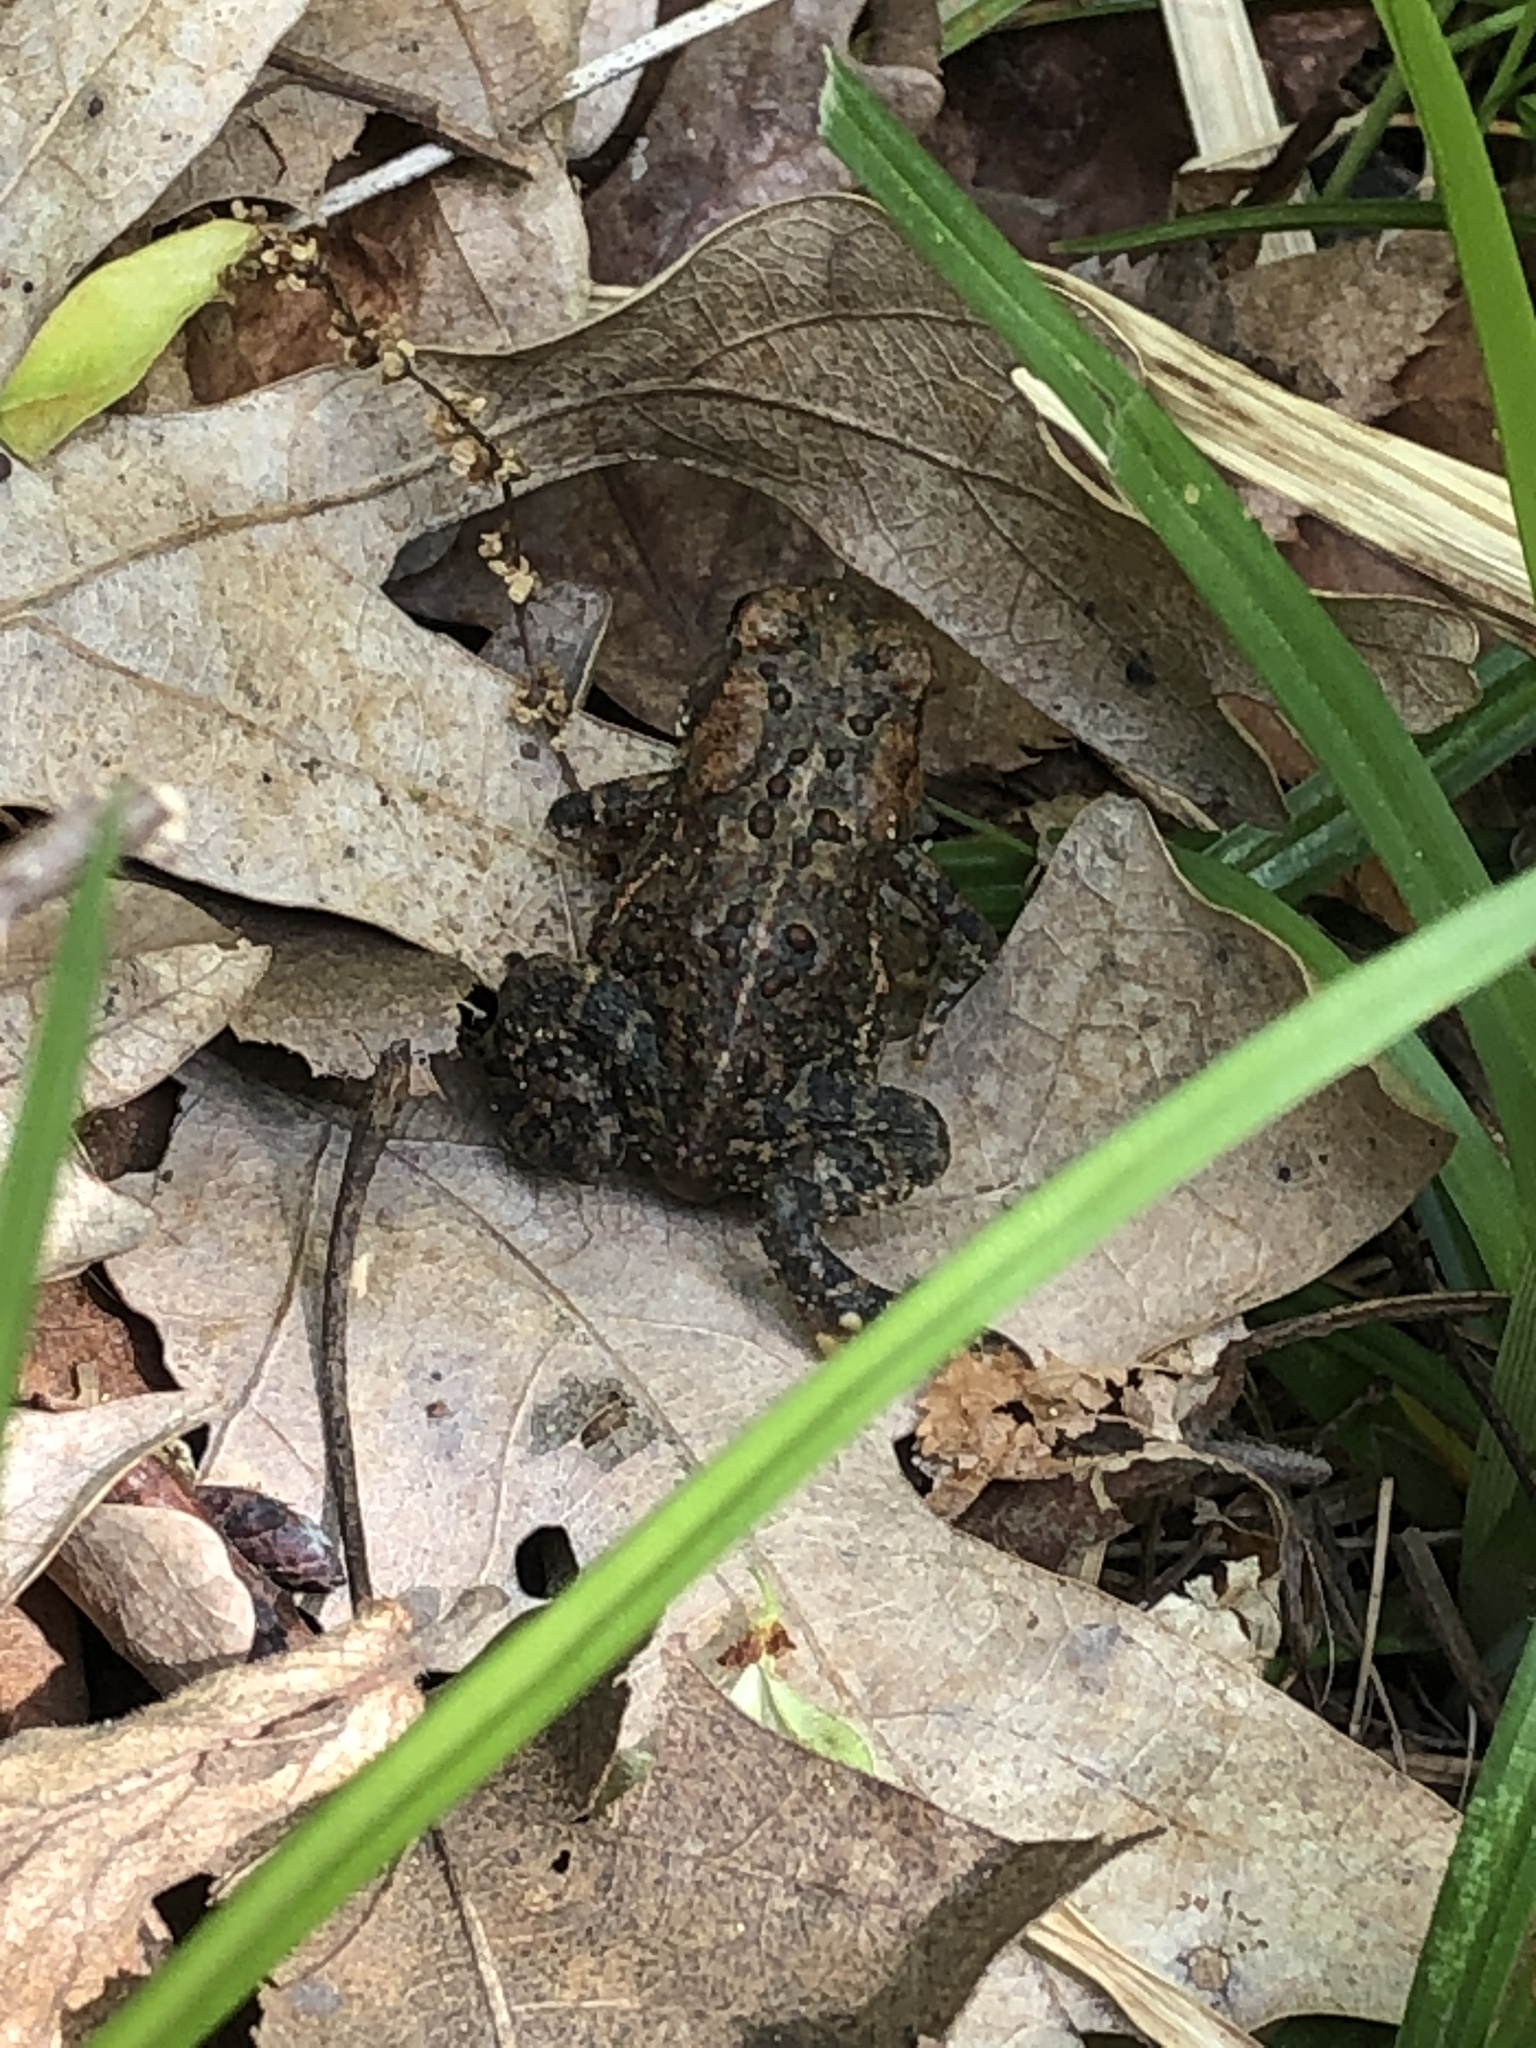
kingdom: Animalia
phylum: Chordata
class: Amphibia
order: Anura
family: Bufonidae
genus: Anaxyrus
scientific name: Anaxyrus americanus
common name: American toad
